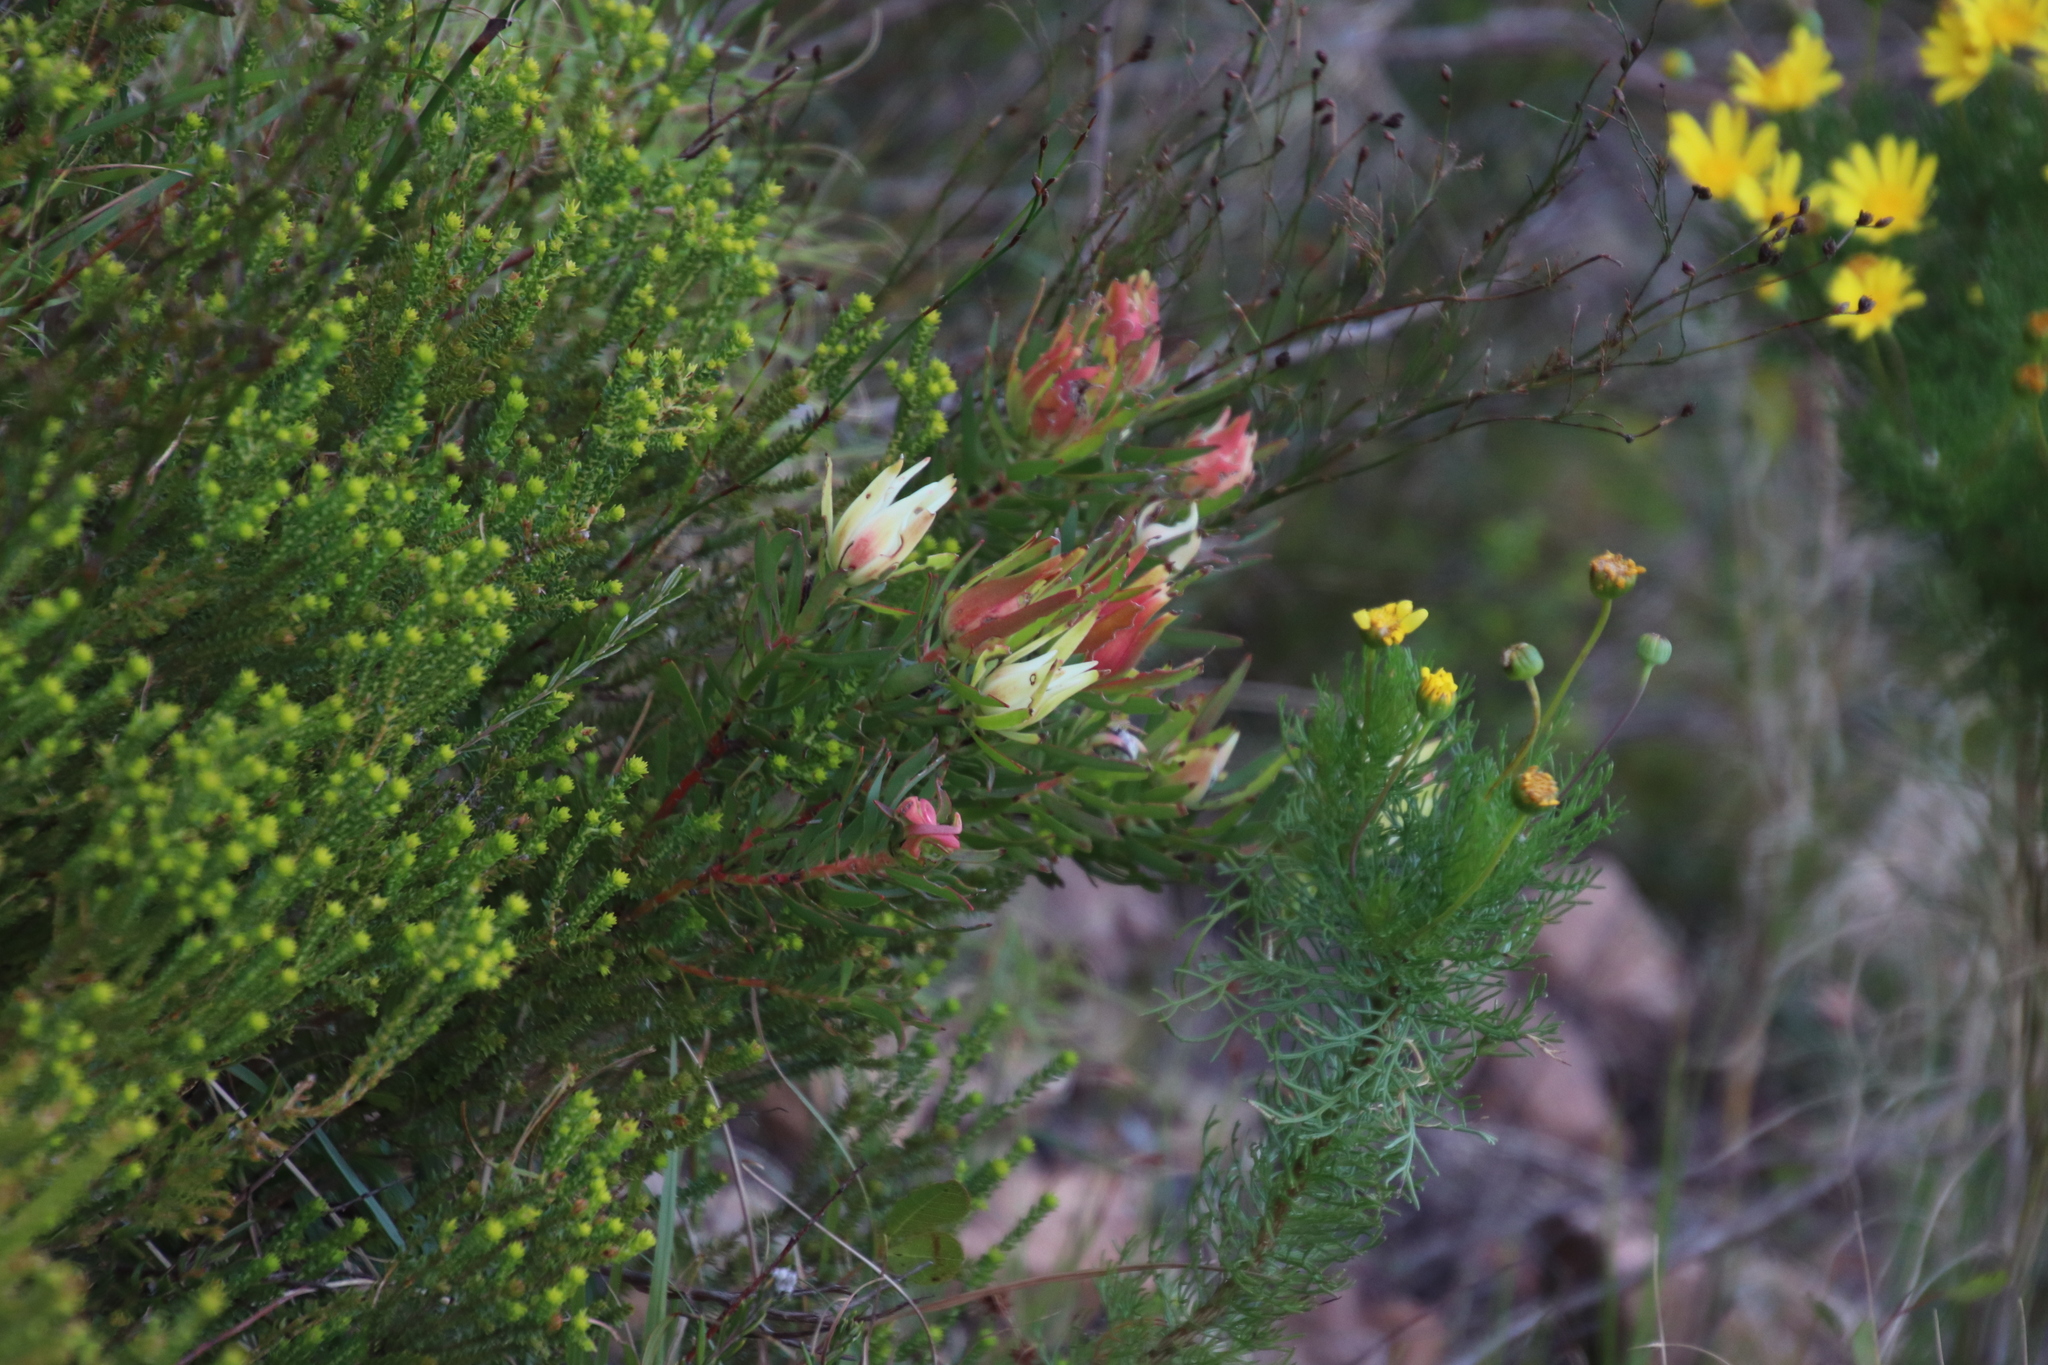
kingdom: Plantae
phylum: Tracheophyta
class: Magnoliopsida
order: Proteales
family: Proteaceae
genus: Leucadendron
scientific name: Leucadendron salignum
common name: Common sunshine conebush
